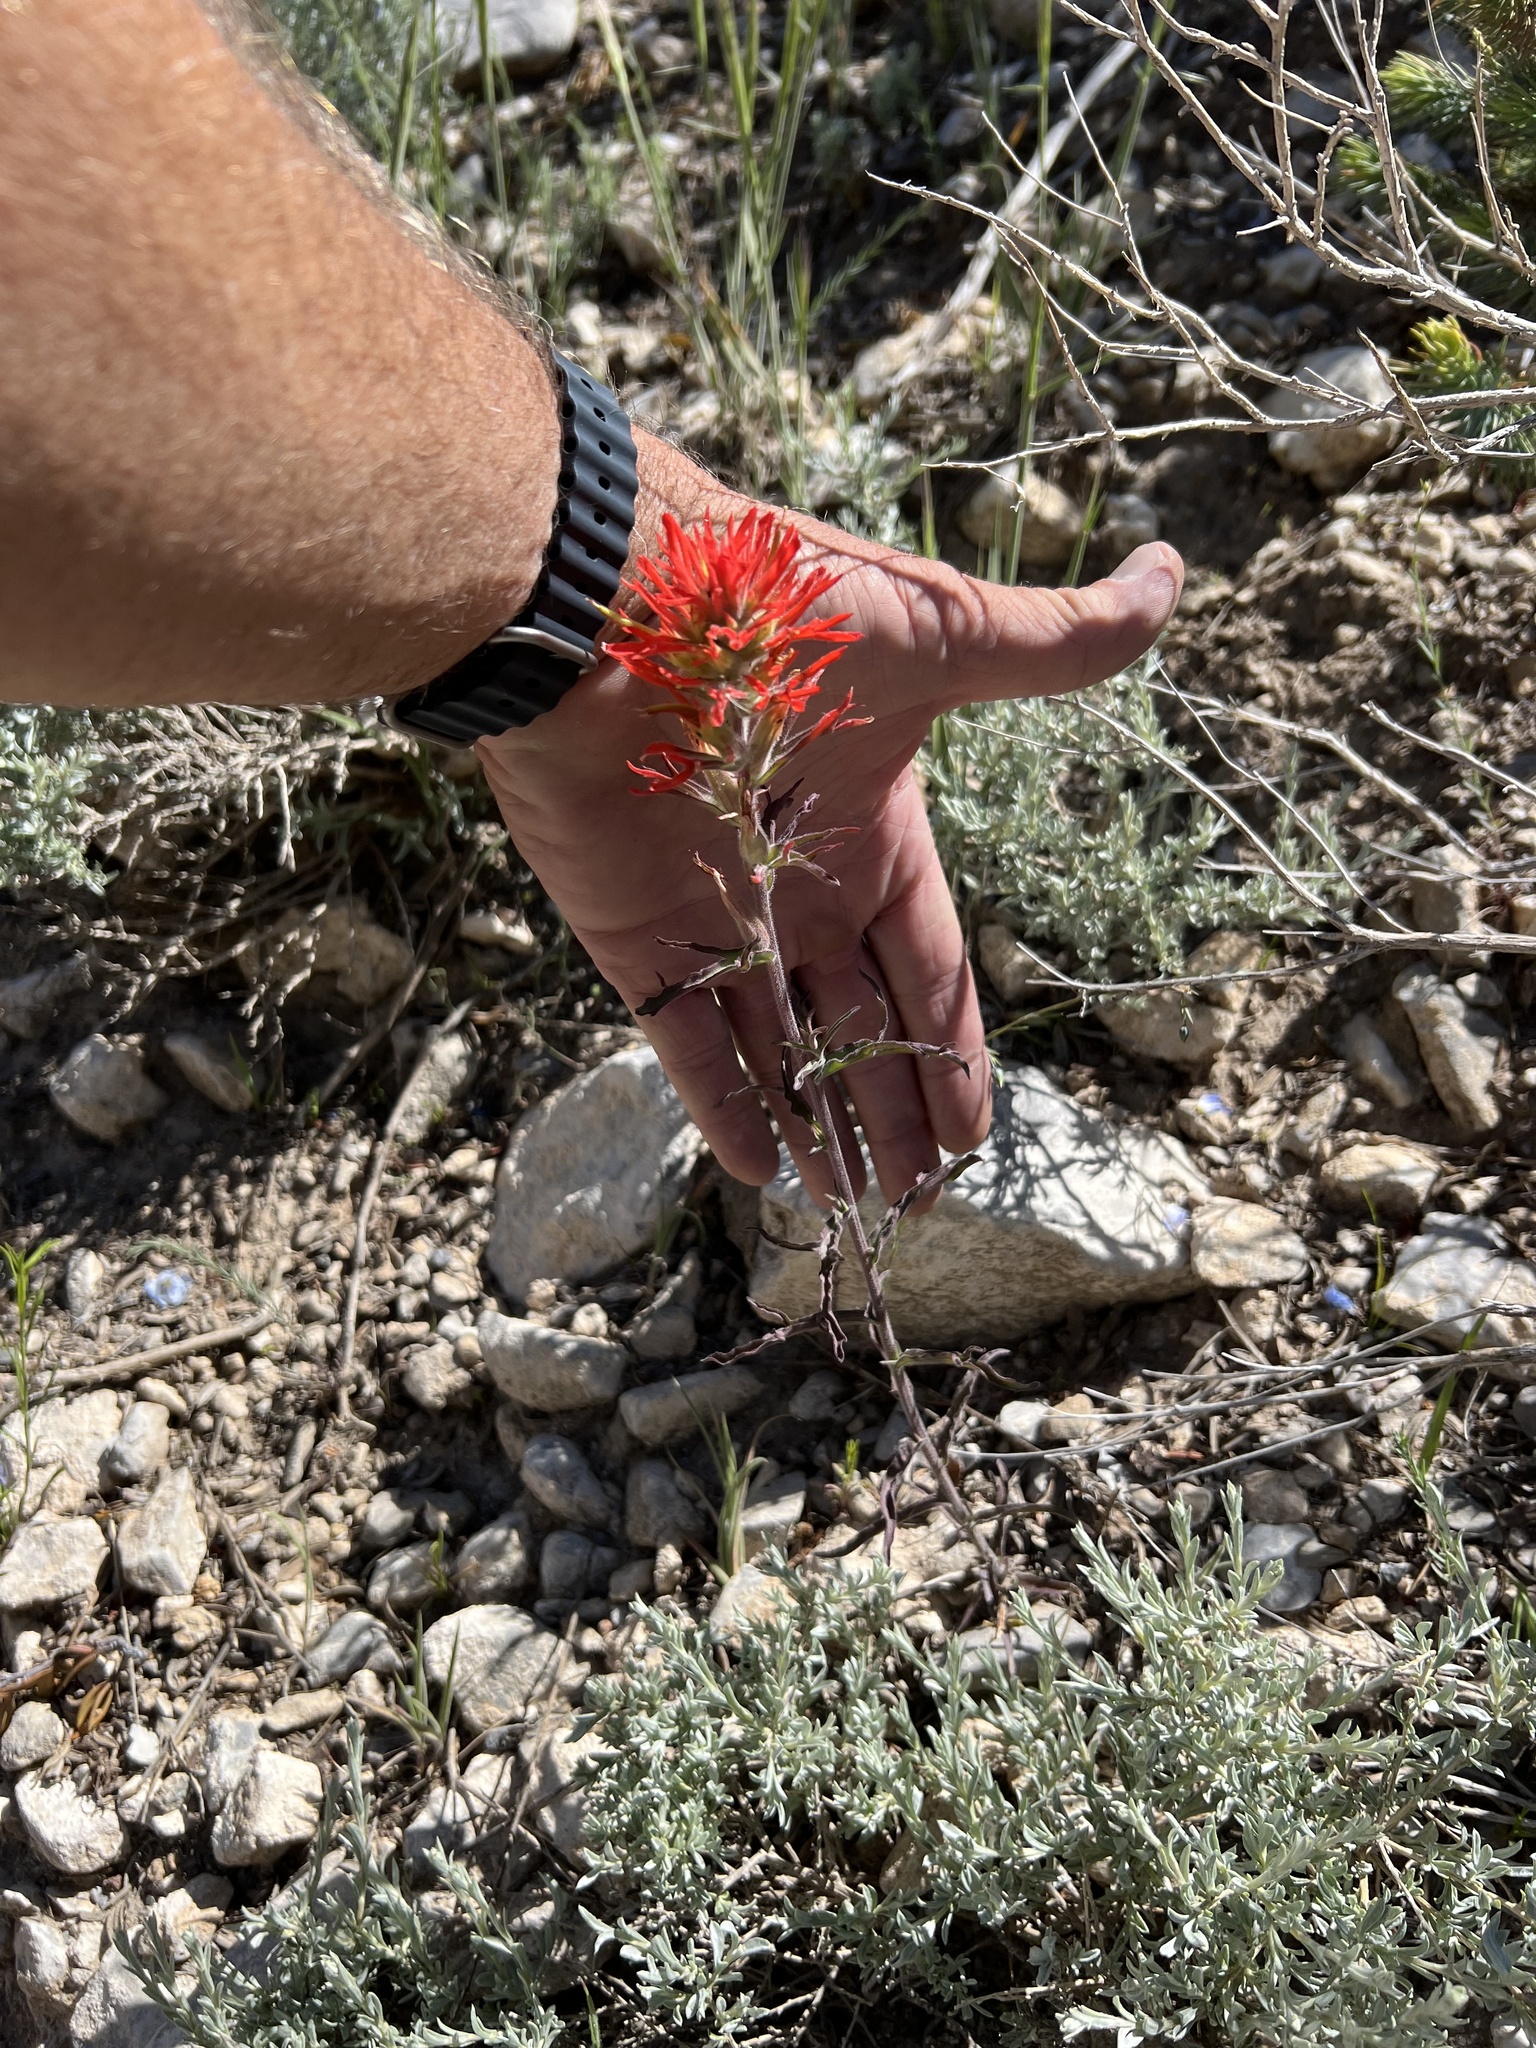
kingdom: Plantae
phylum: Tracheophyta
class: Magnoliopsida
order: Lamiales
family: Orobanchaceae
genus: Castilleja
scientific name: Castilleja chromosa
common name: Desert paintbrush
